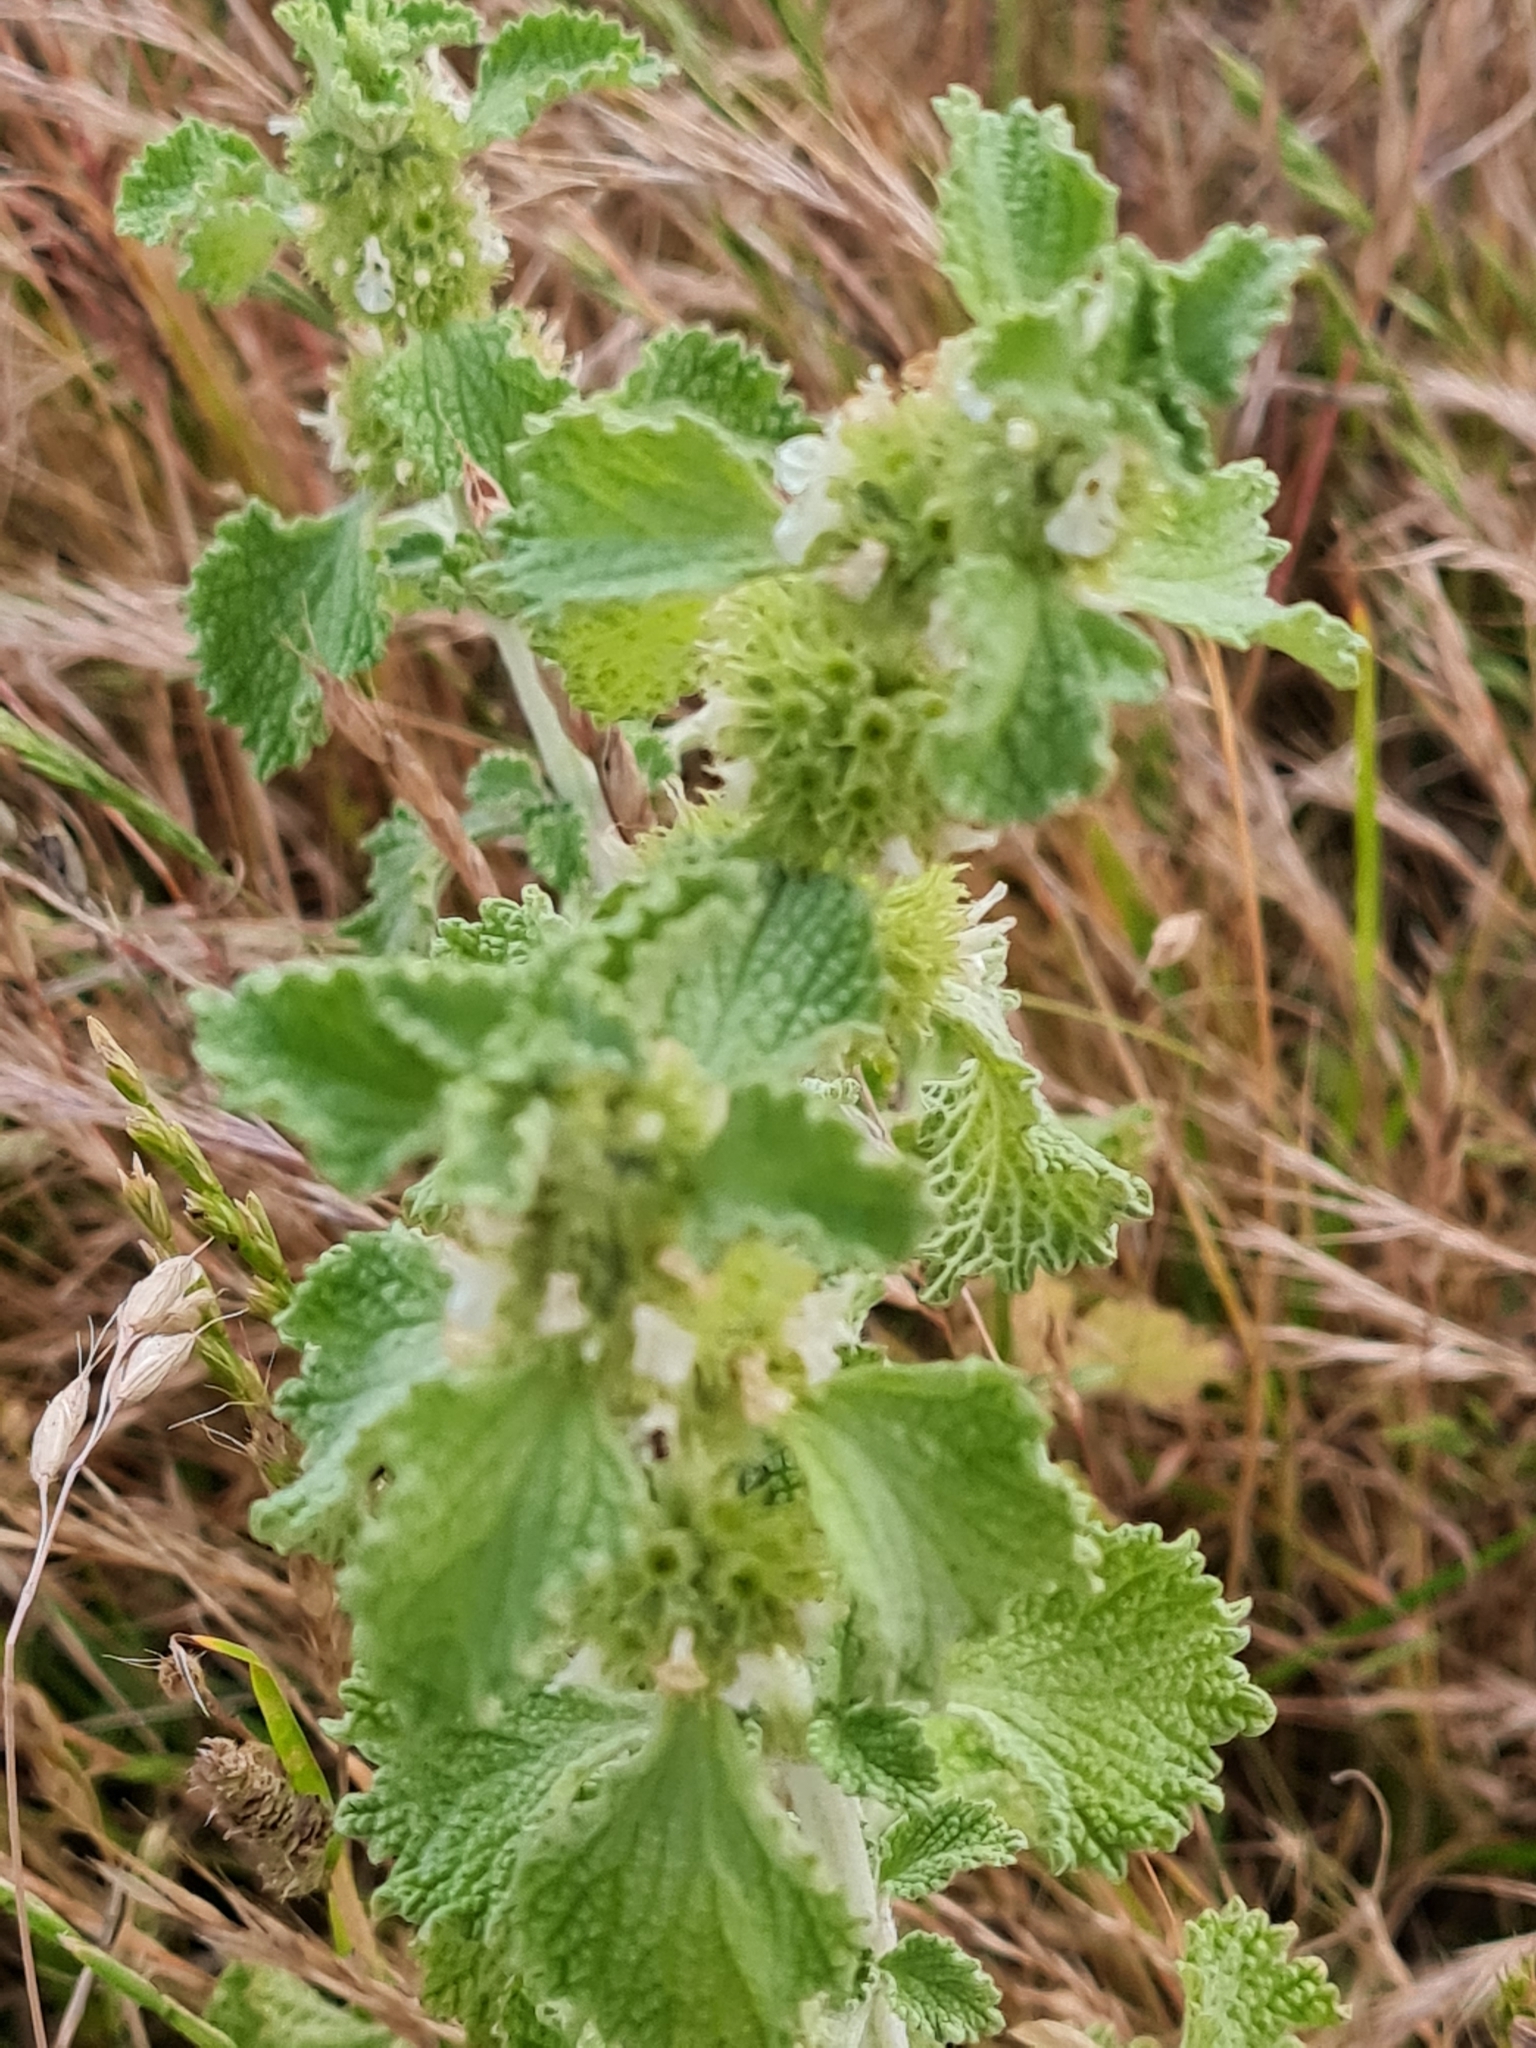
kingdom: Plantae
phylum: Tracheophyta
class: Magnoliopsida
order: Lamiales
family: Lamiaceae
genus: Marrubium
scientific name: Marrubium vulgare
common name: Horehound
